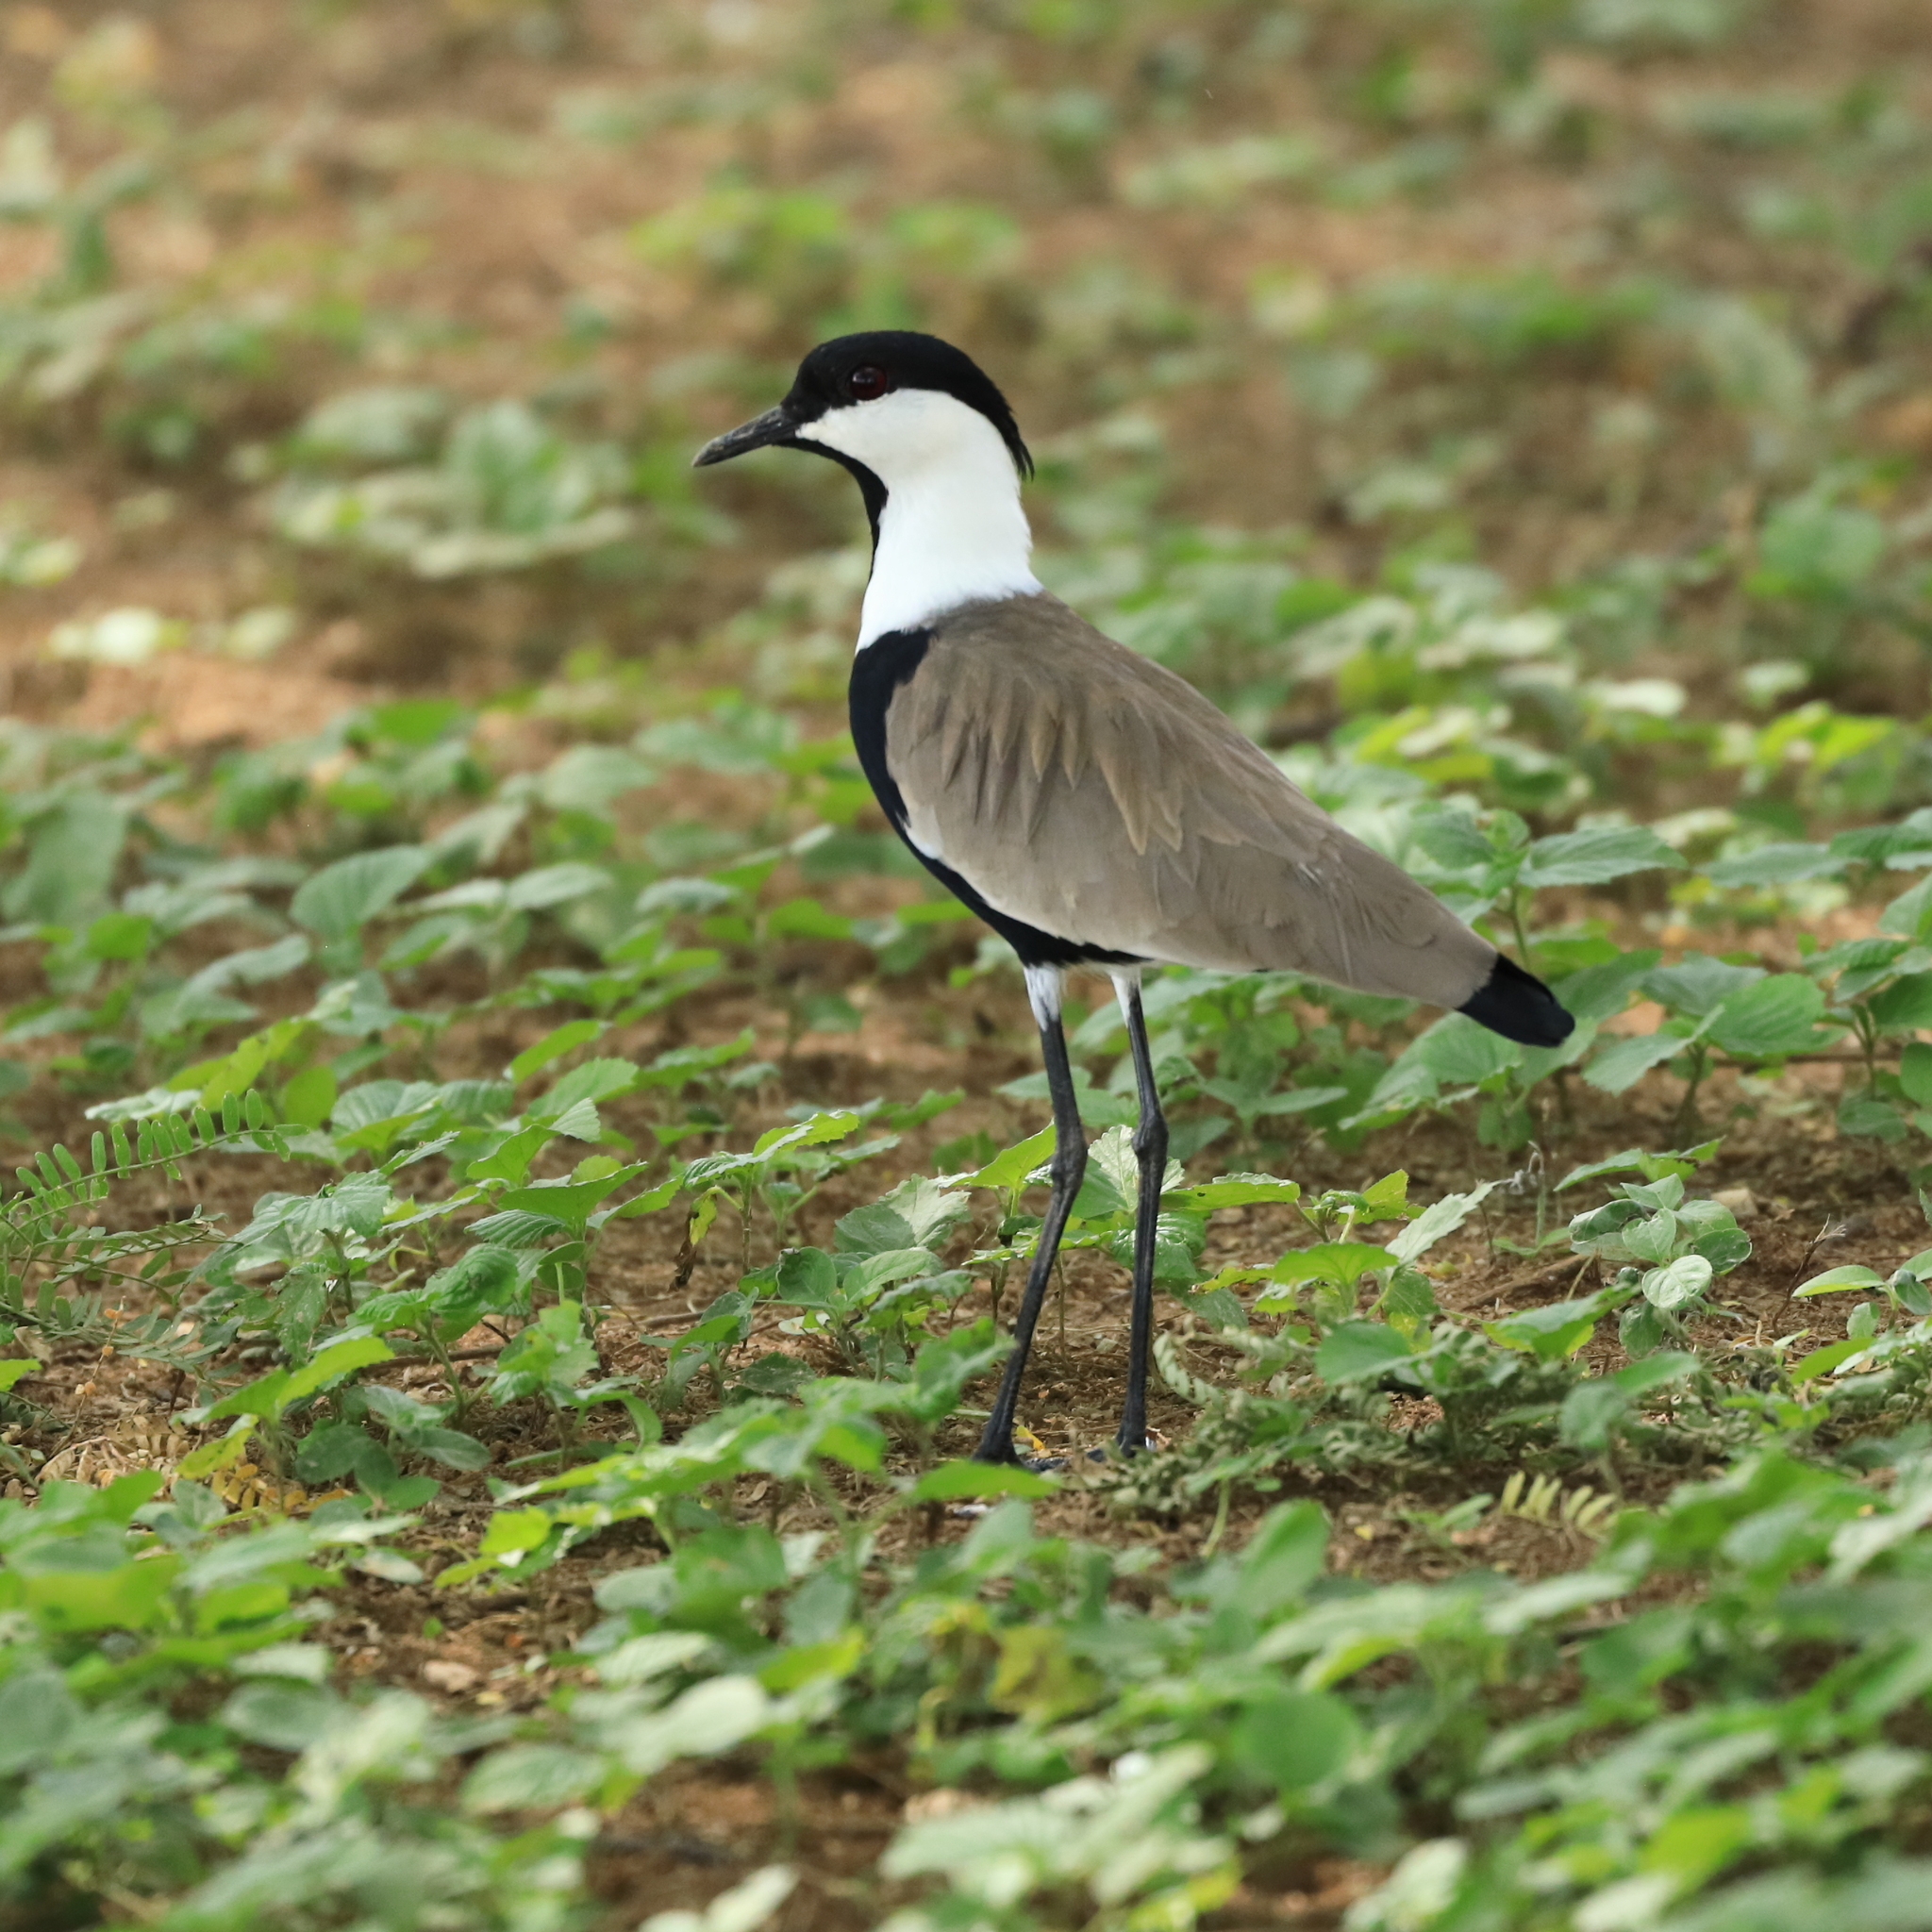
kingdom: Animalia
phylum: Chordata
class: Aves
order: Charadriiformes
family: Charadriidae
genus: Vanellus
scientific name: Vanellus spinosus
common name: Spur-winged lapwing
